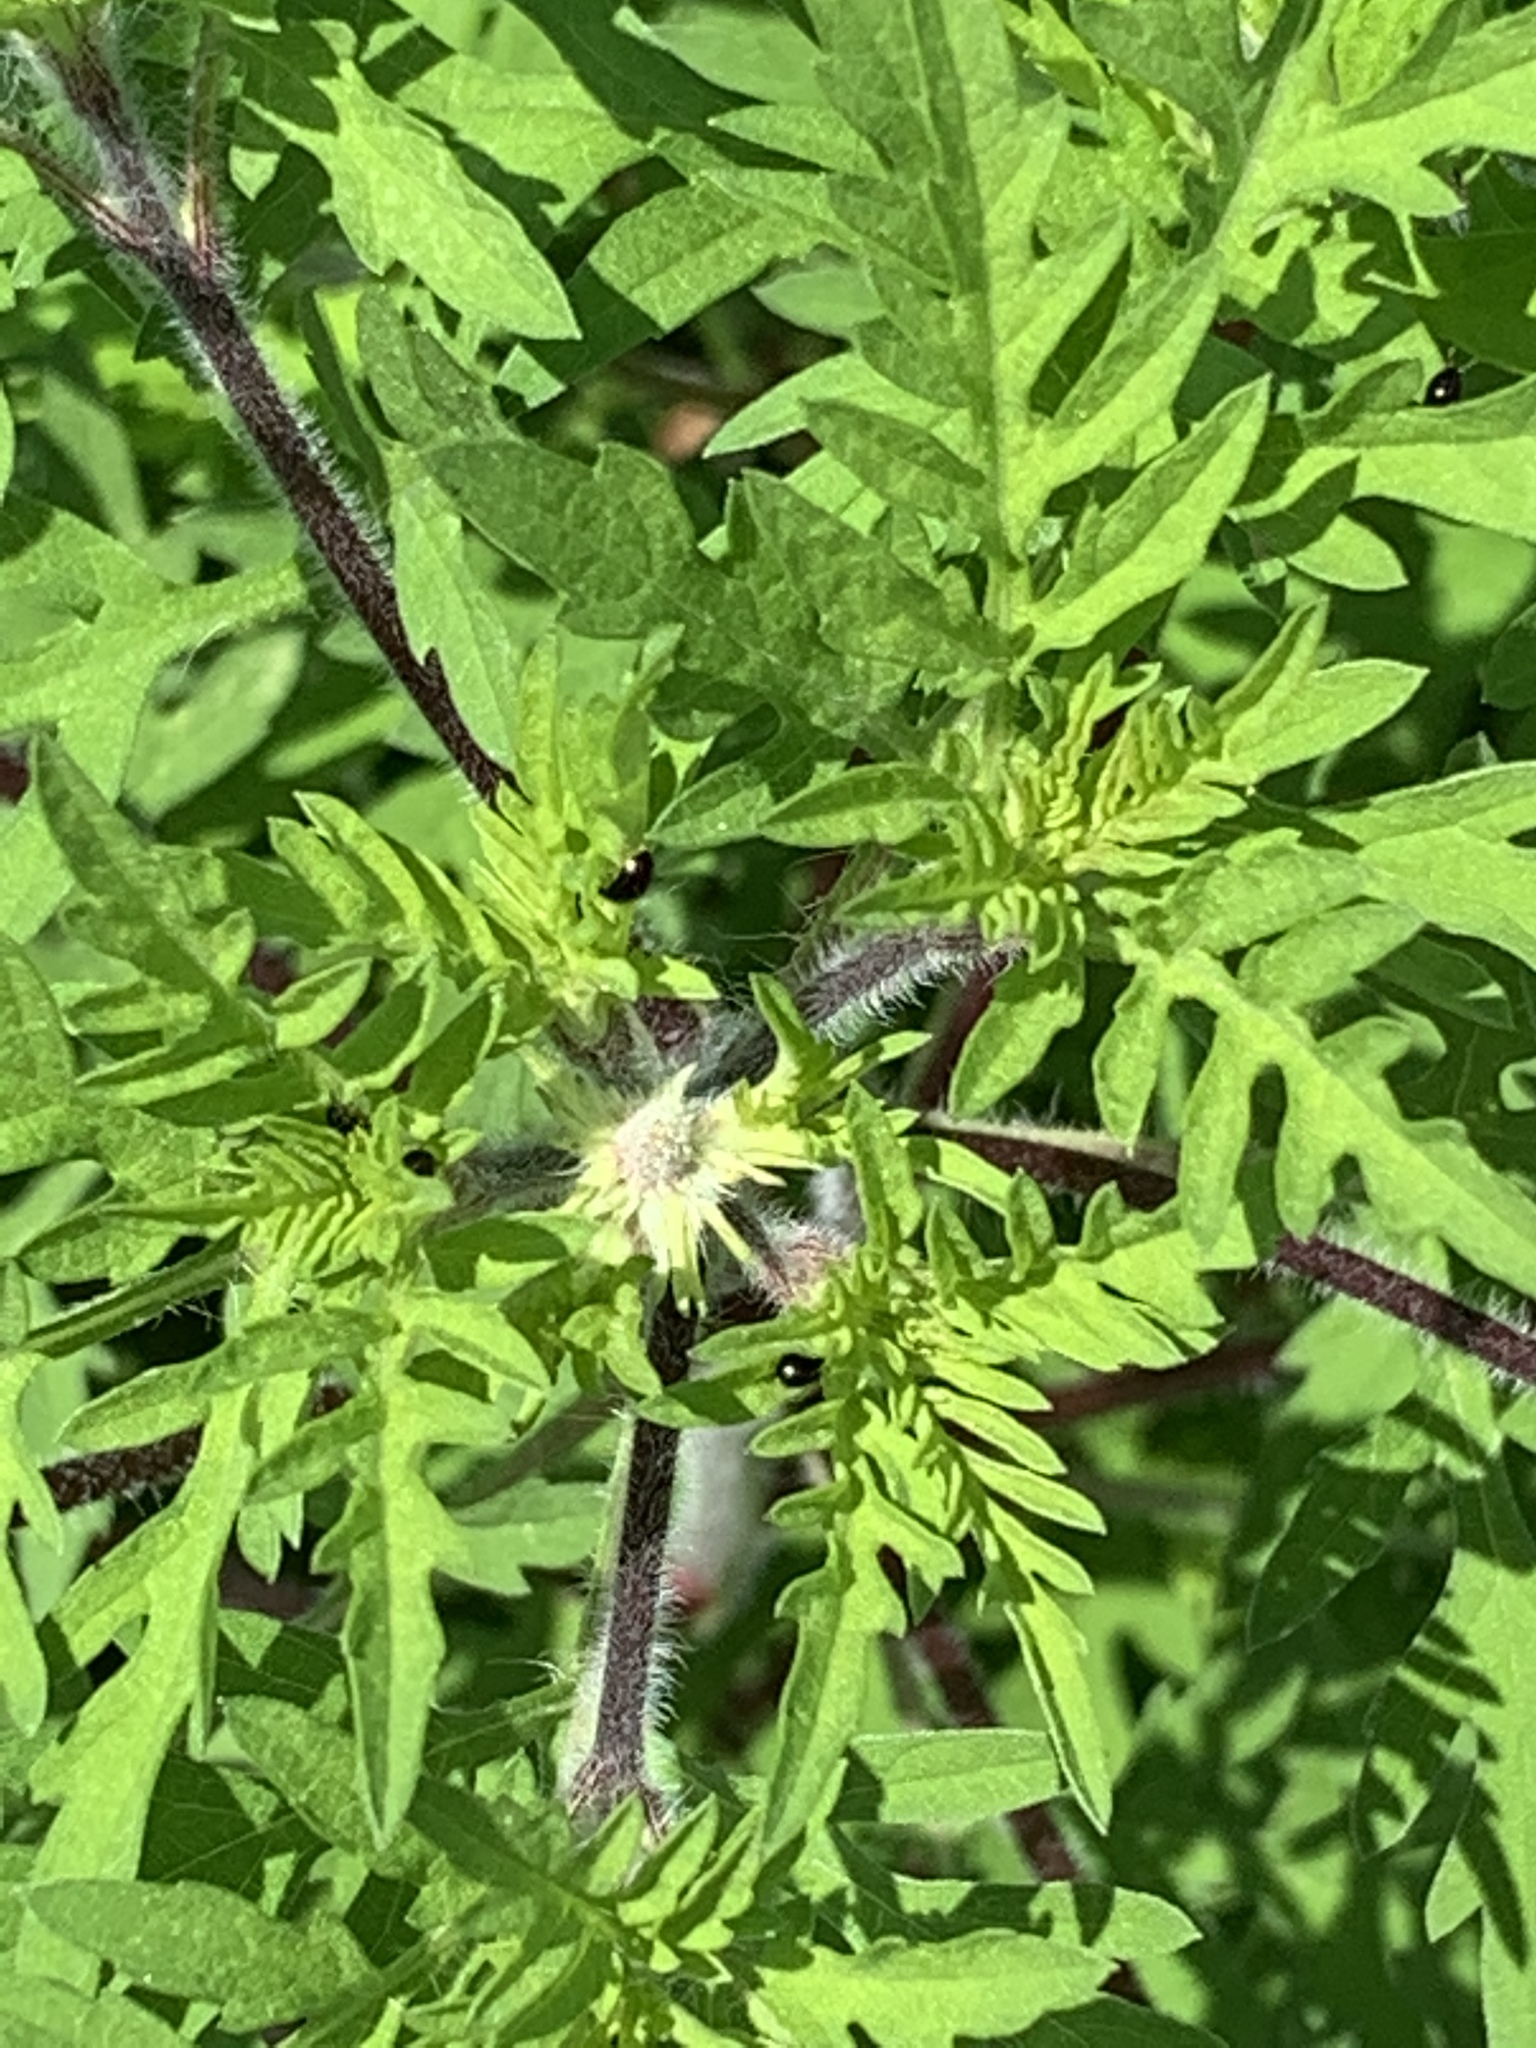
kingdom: Plantae
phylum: Tracheophyta
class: Magnoliopsida
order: Asterales
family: Asteraceae
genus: Ambrosia
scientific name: Ambrosia artemisiifolia
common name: Annual ragweed
